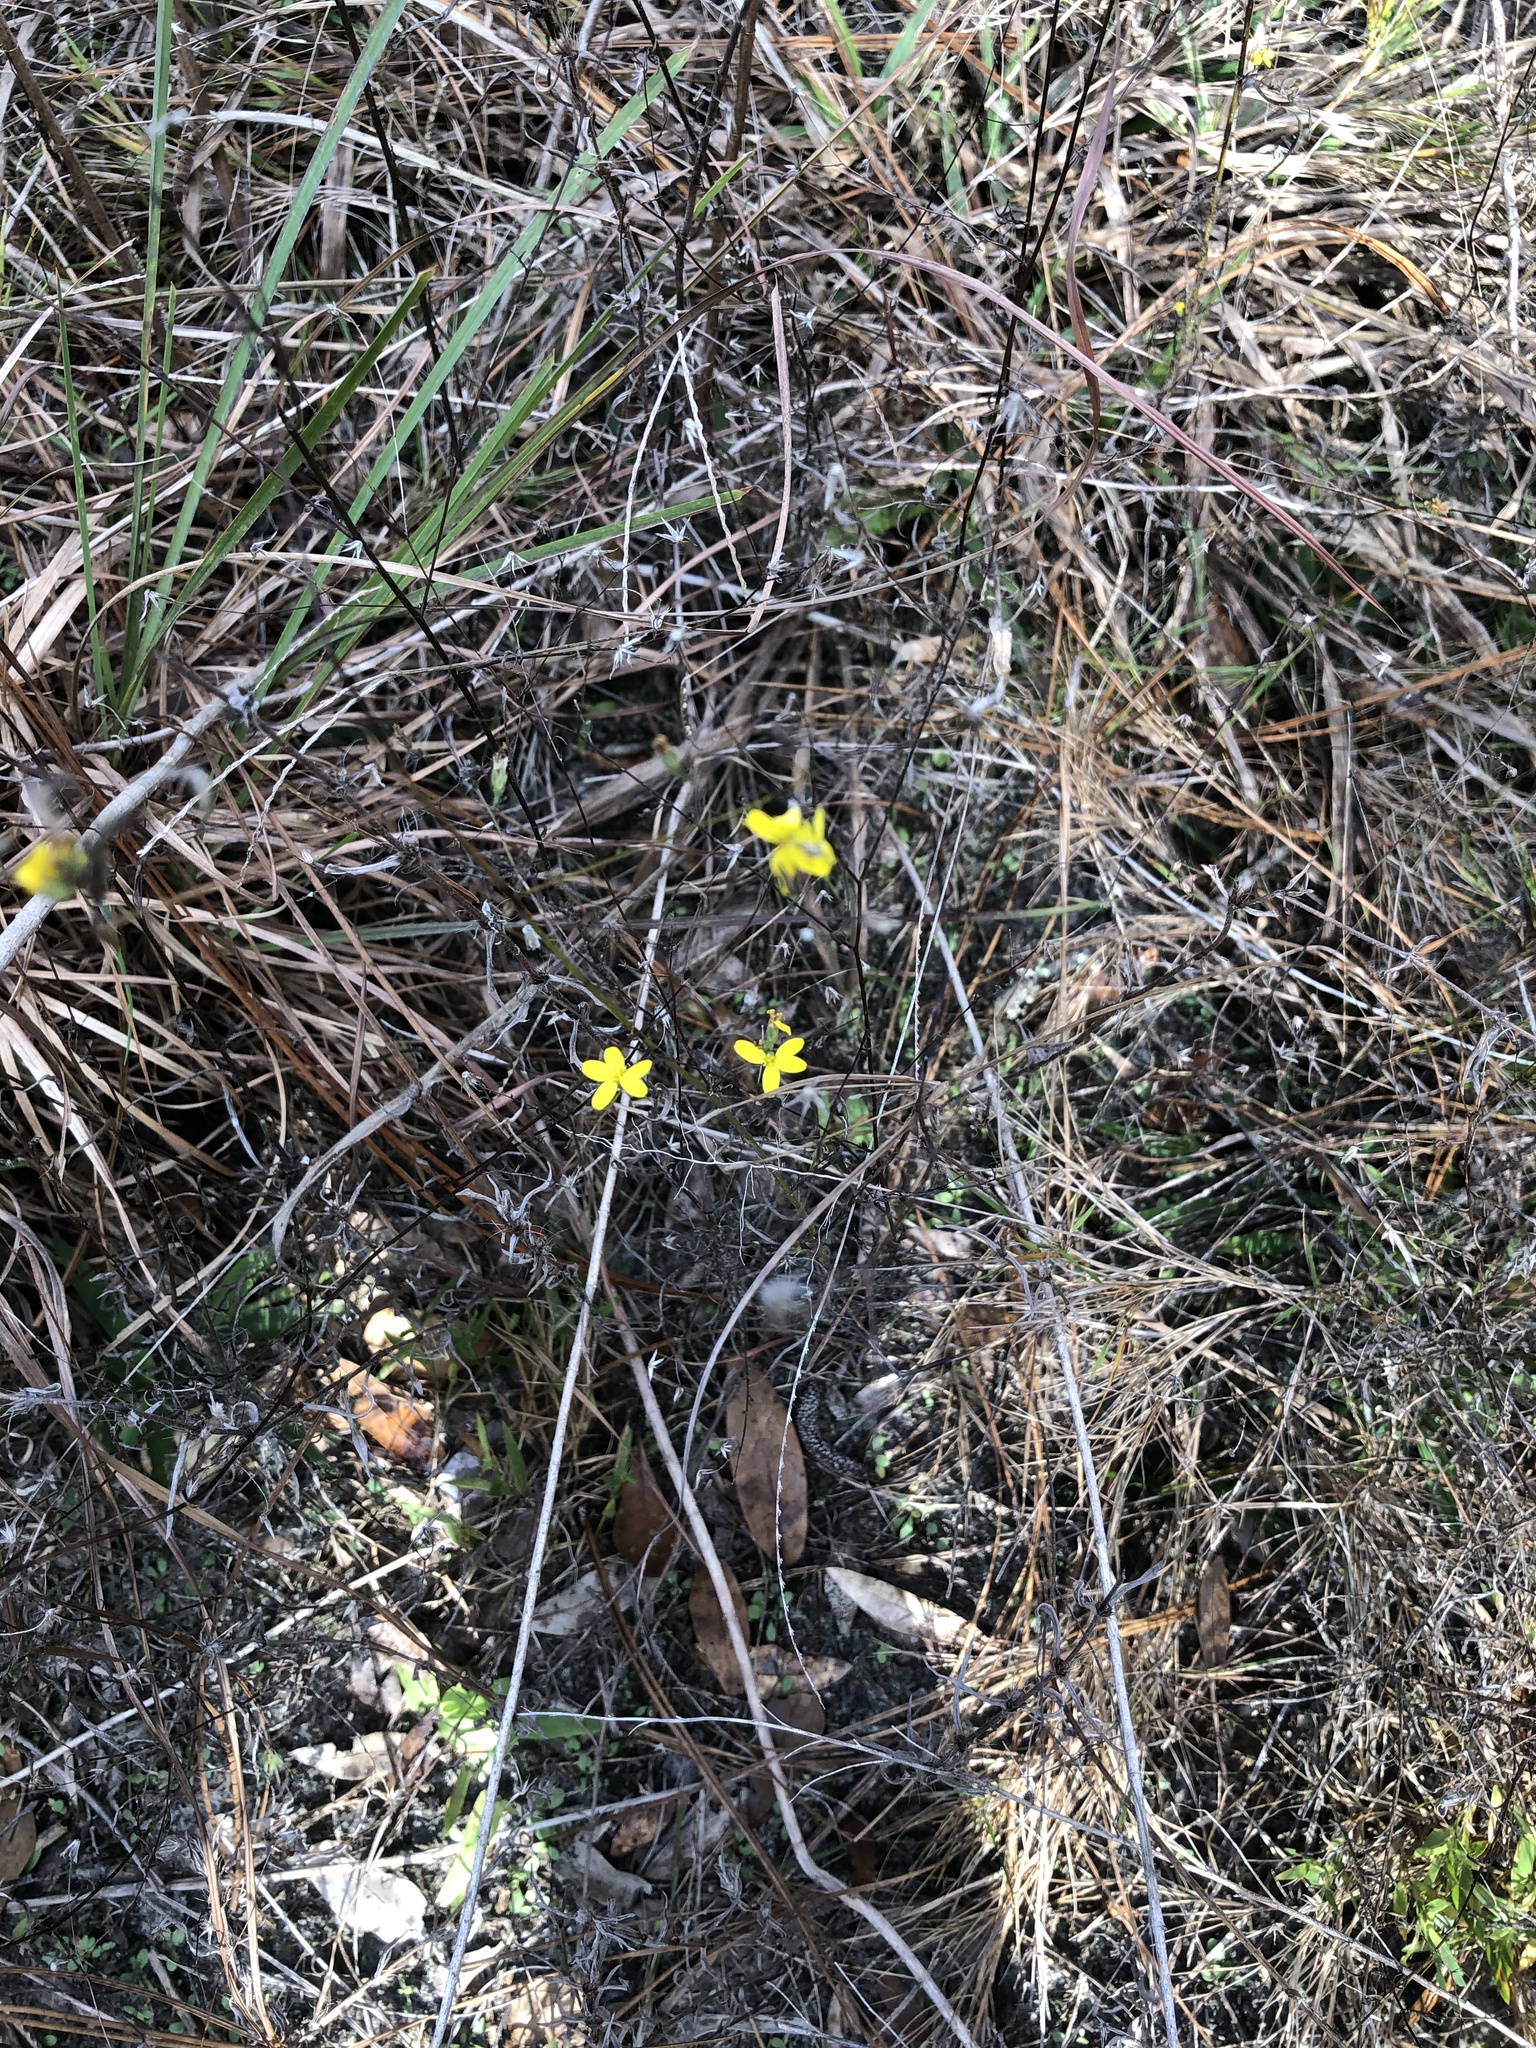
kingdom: Plantae
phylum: Tracheophyta
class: Magnoliopsida
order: Asterales
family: Asteraceae
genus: Croptilon
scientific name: Croptilon divaricatum
